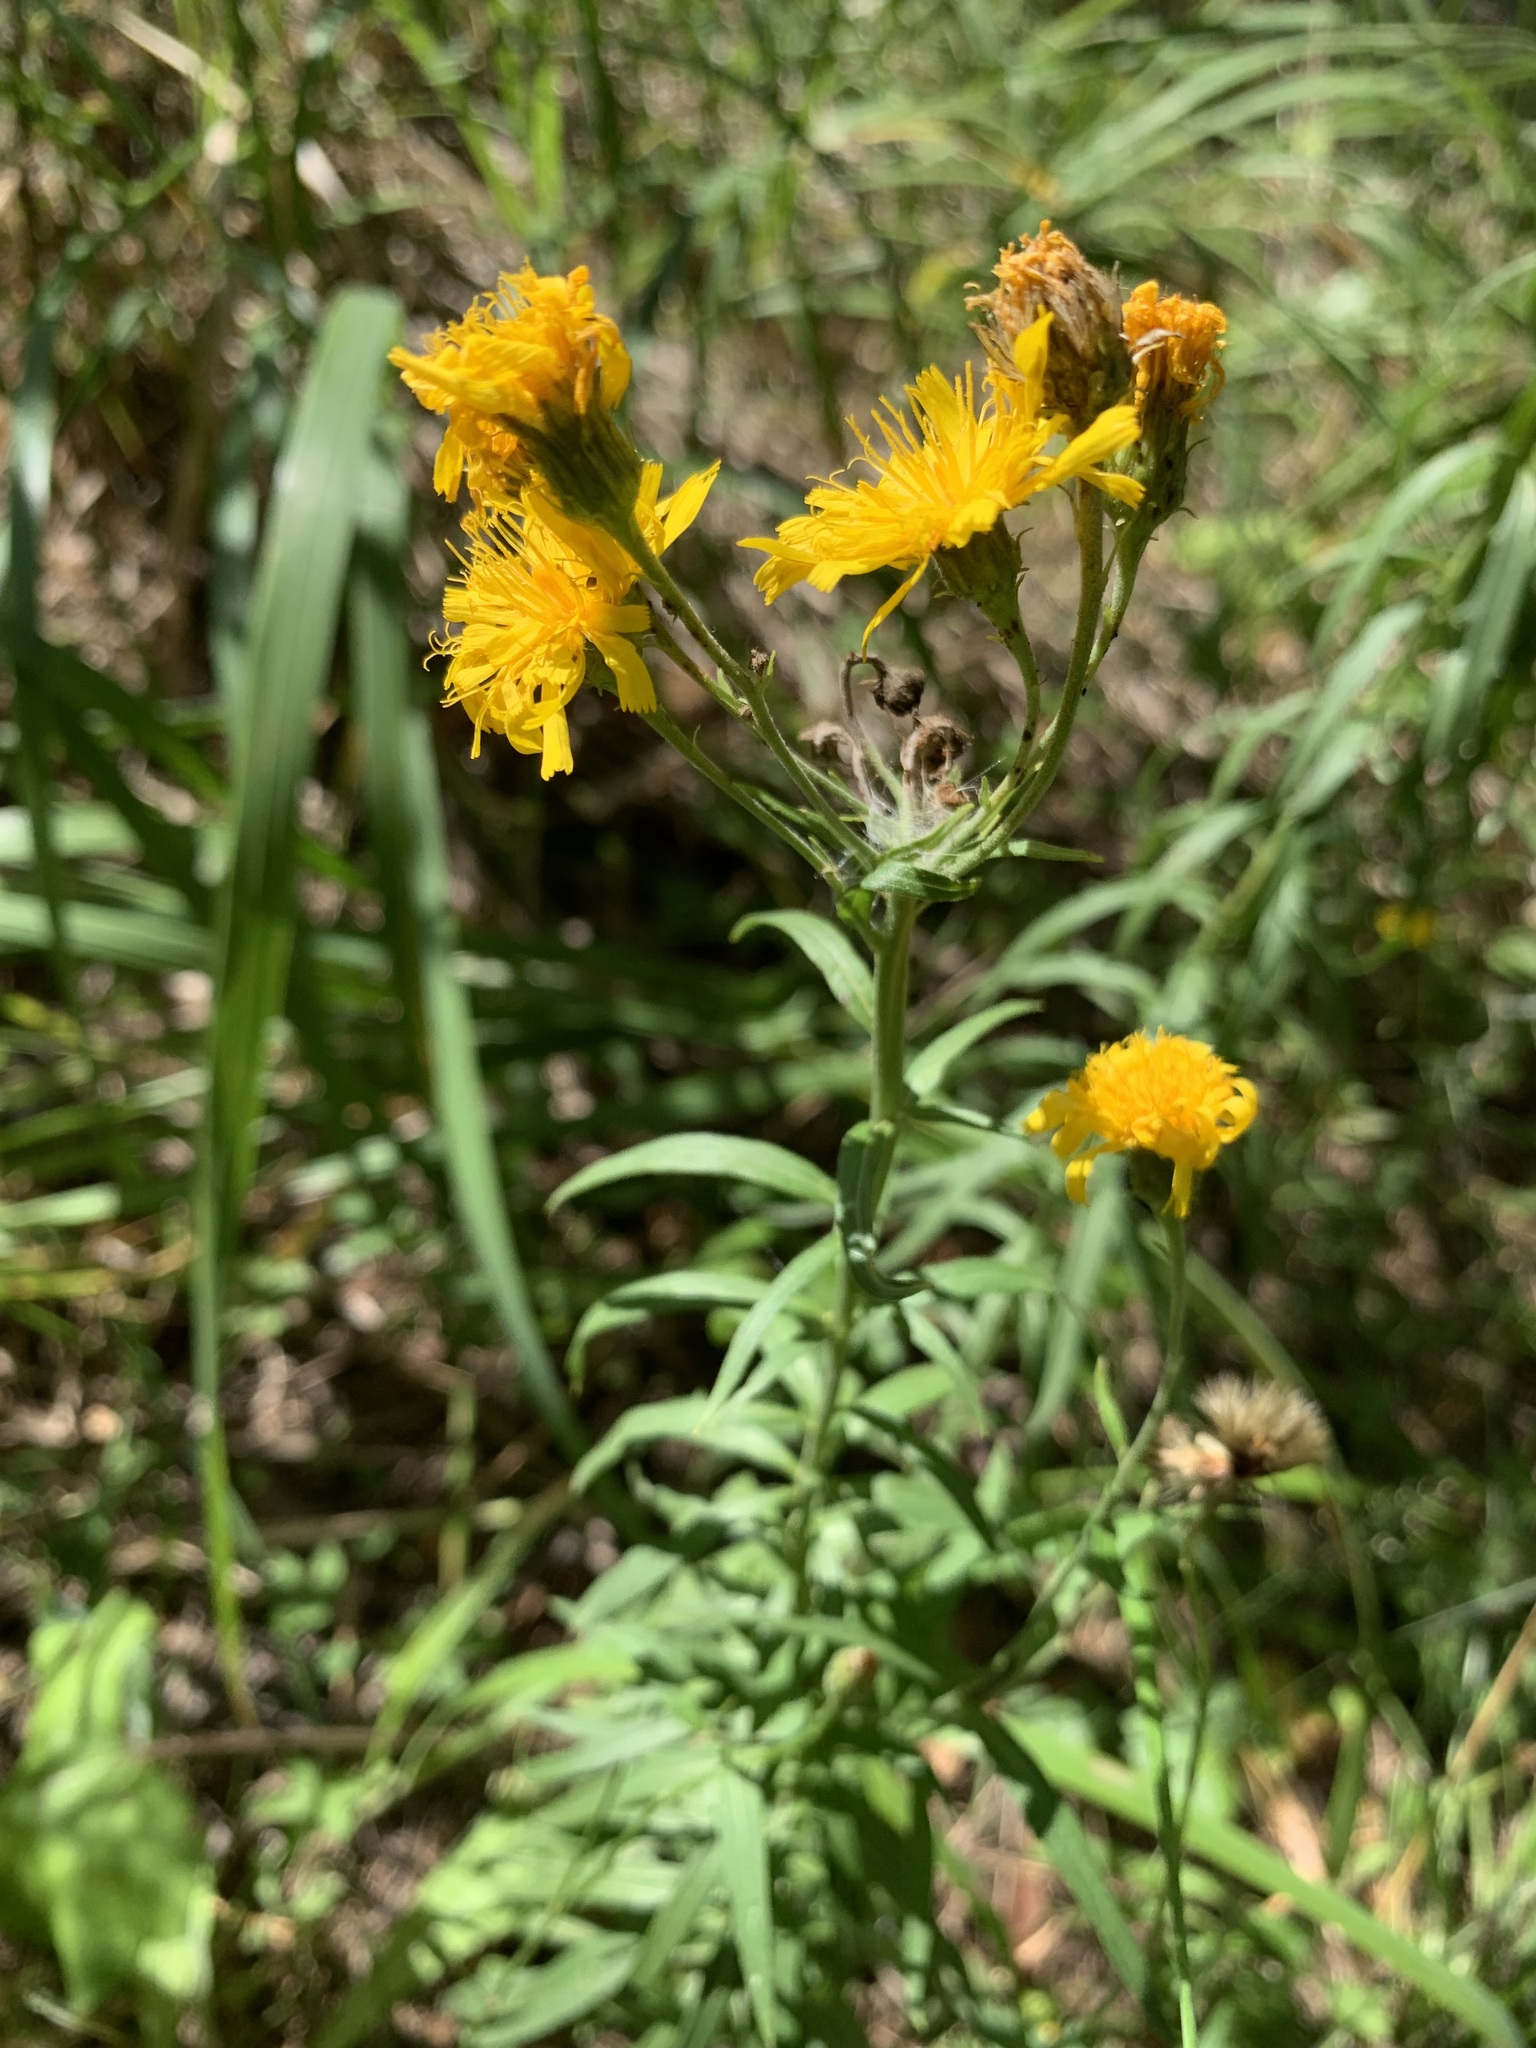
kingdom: Plantae
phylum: Tracheophyta
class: Magnoliopsida
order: Asterales
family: Asteraceae
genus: Hieracium
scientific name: Hieracium umbellatum
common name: Northern hawkweed
